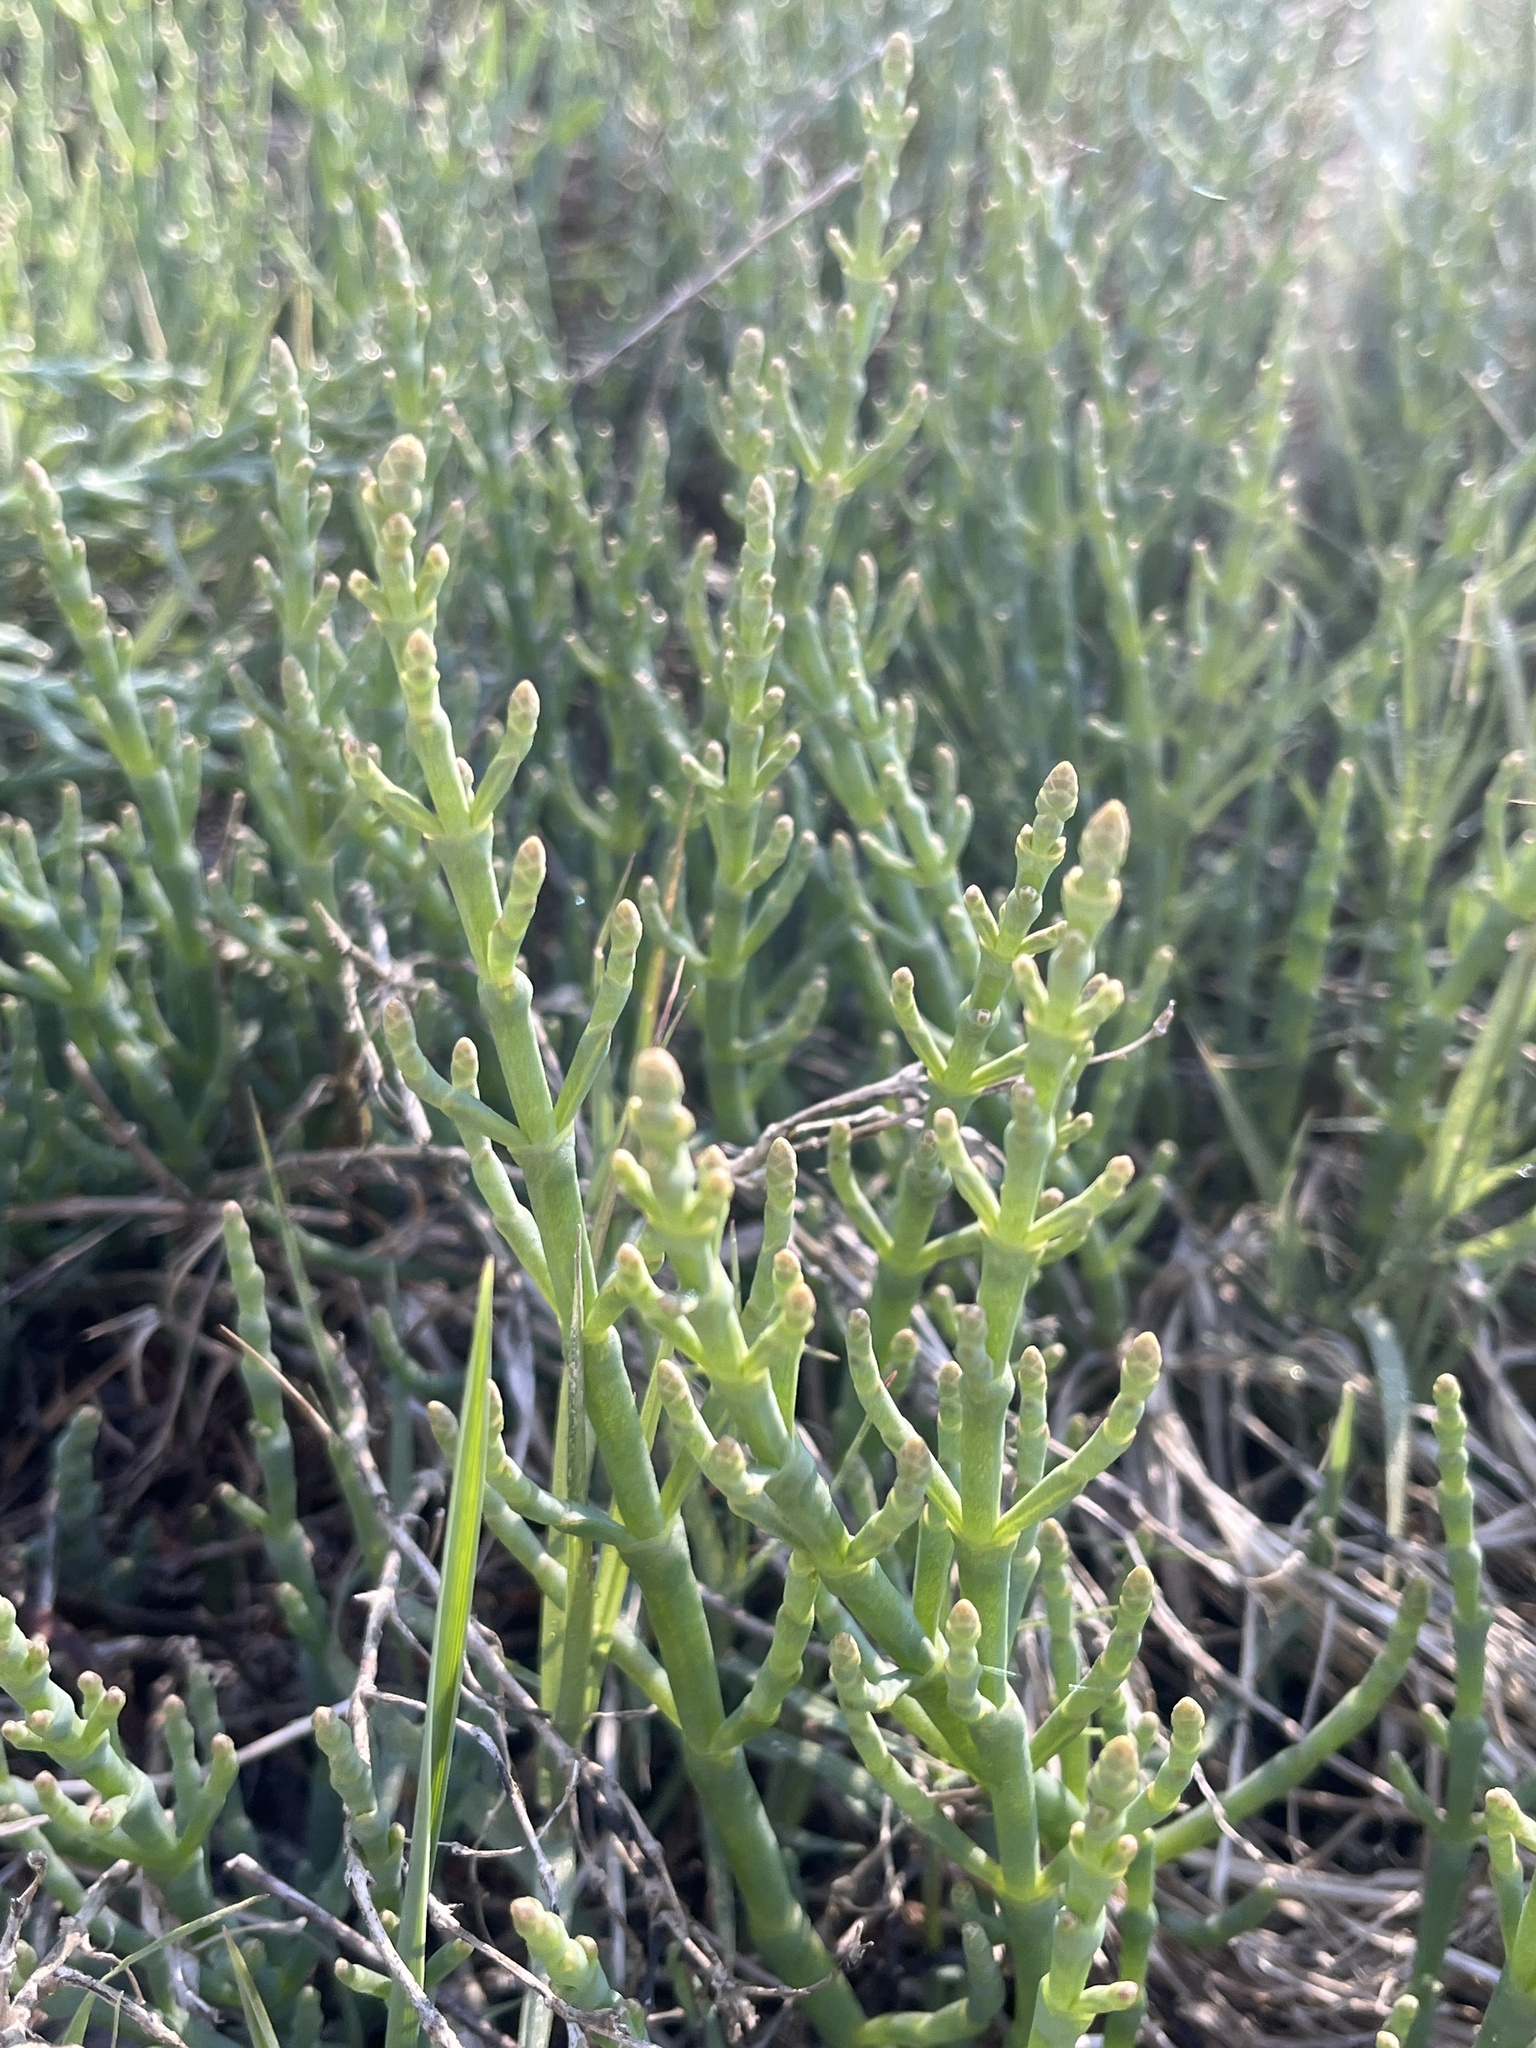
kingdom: Plantae
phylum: Tracheophyta
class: Magnoliopsida
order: Caryophyllales
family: Amaranthaceae
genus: Salicornia
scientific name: Salicornia pacifica
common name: Pacific glasswort
